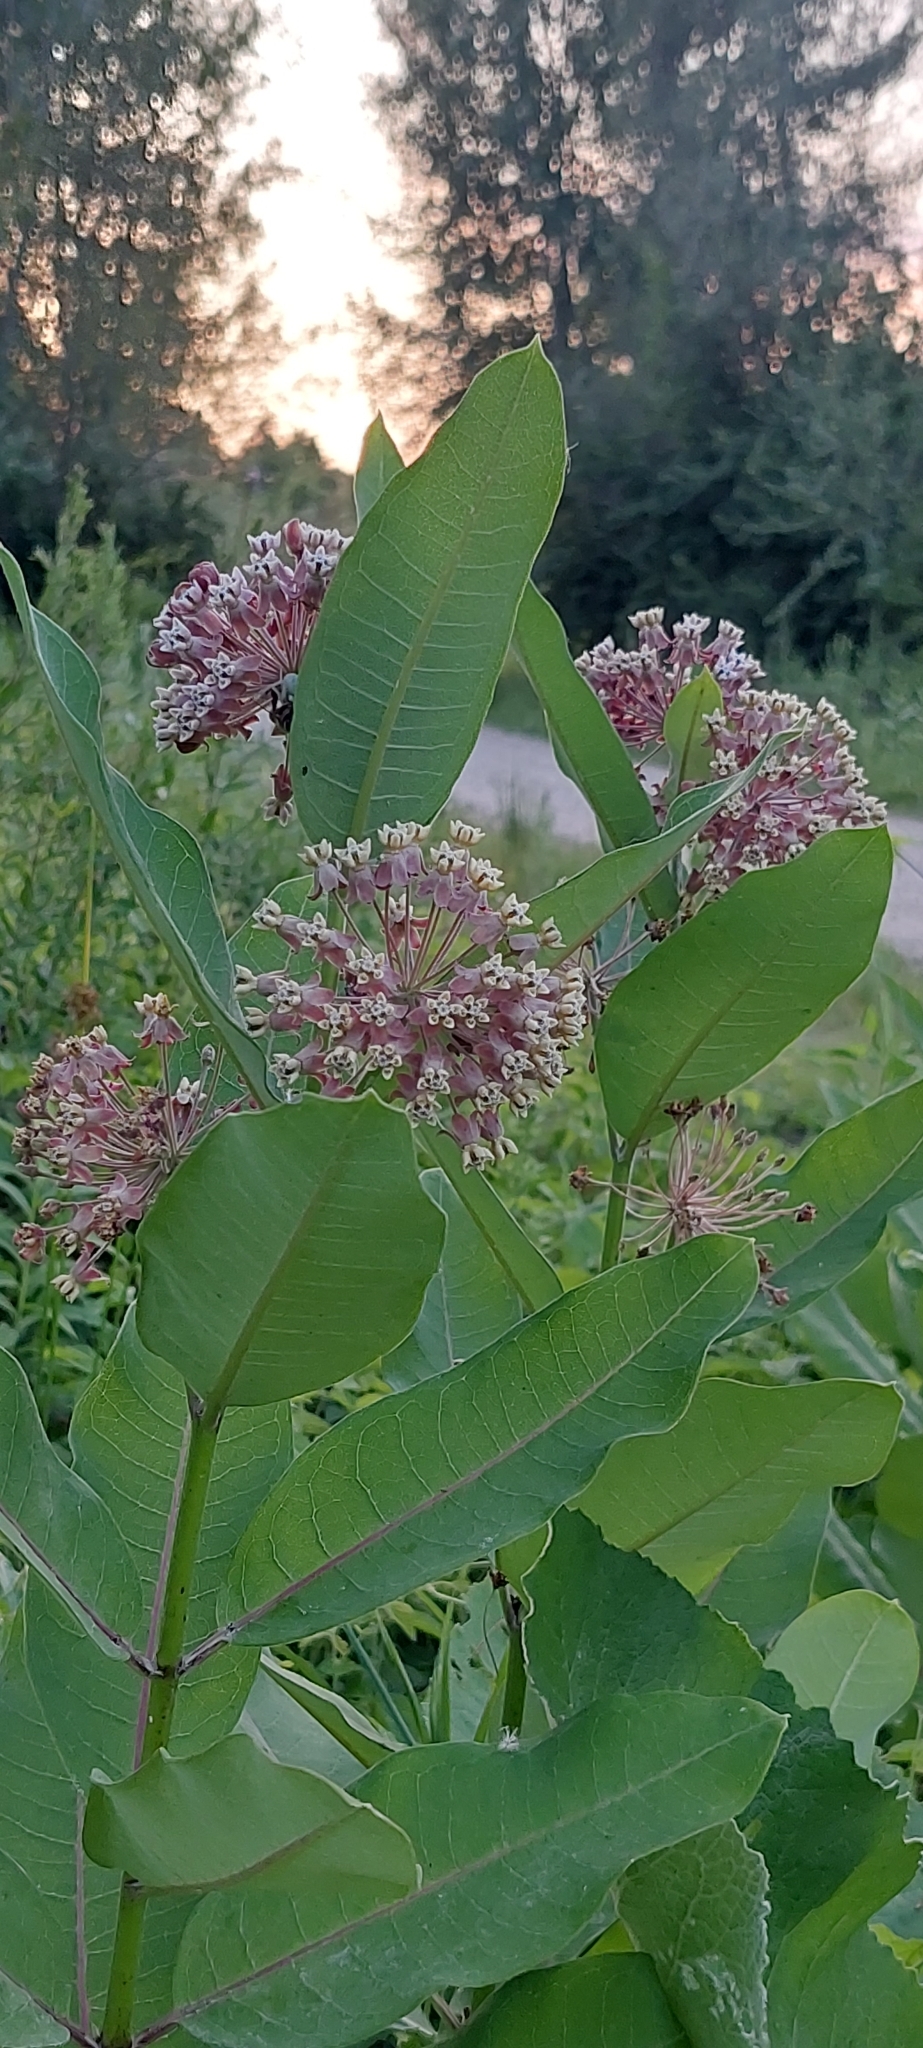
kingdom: Plantae
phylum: Tracheophyta
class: Magnoliopsida
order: Gentianales
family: Apocynaceae
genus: Asclepias
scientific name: Asclepias syriaca
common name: Common milkweed
